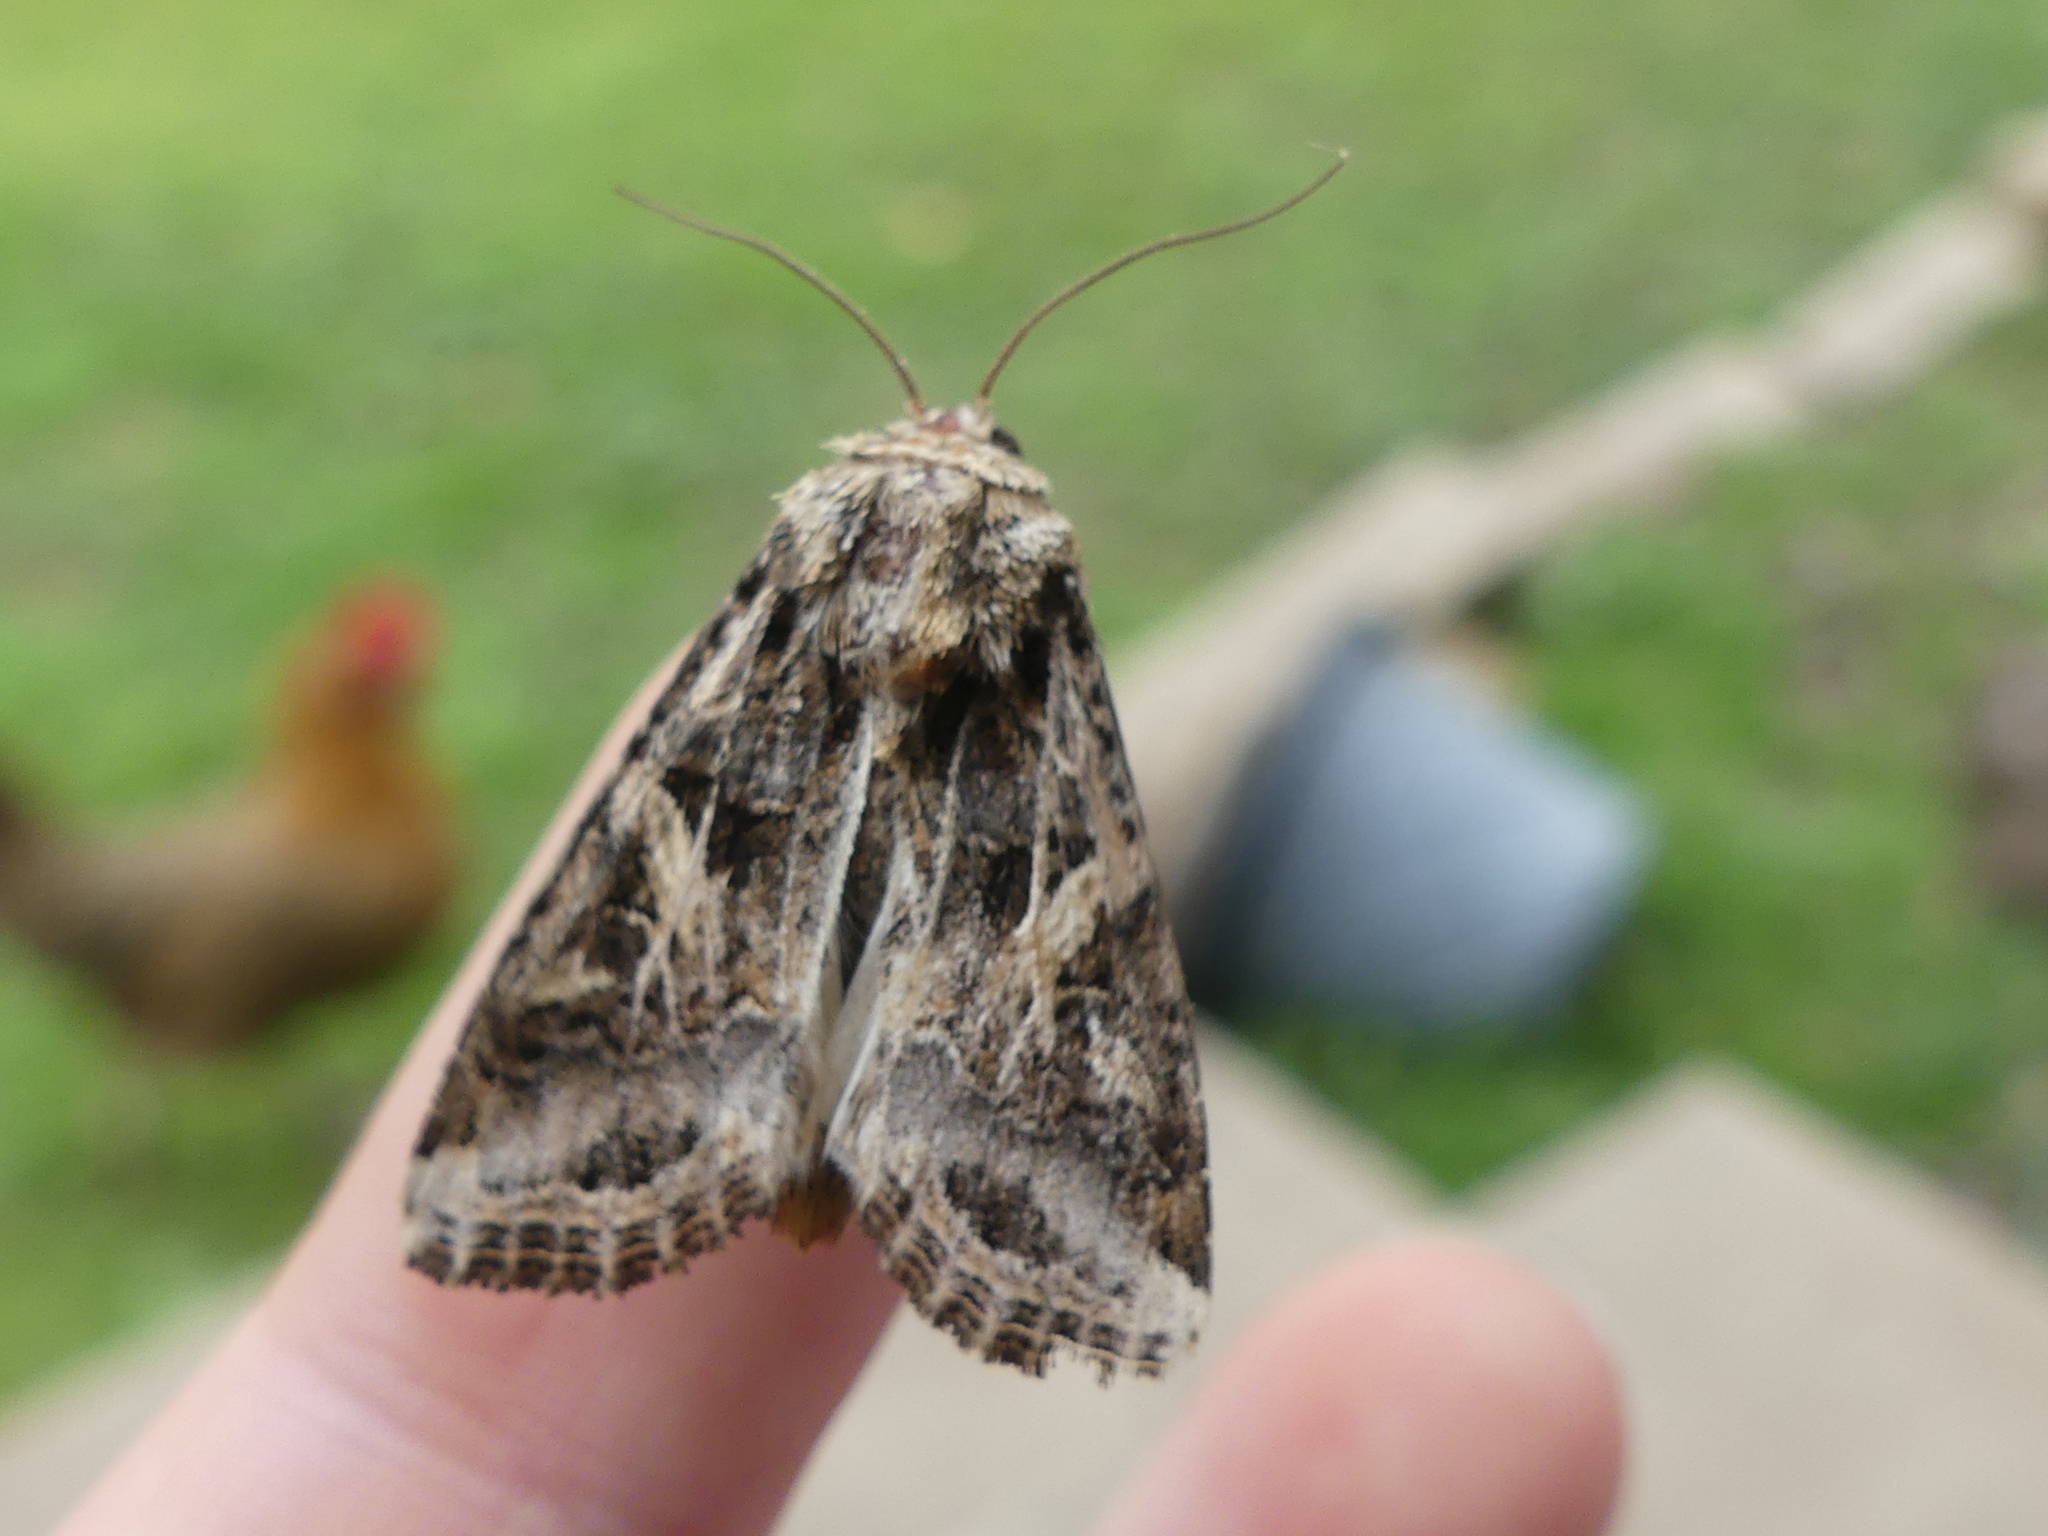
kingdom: Animalia
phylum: Arthropoda
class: Insecta
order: Lepidoptera
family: Noctuidae
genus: Spodoptera
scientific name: Spodoptera ornithogalli
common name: Yellow-striped armyworm
